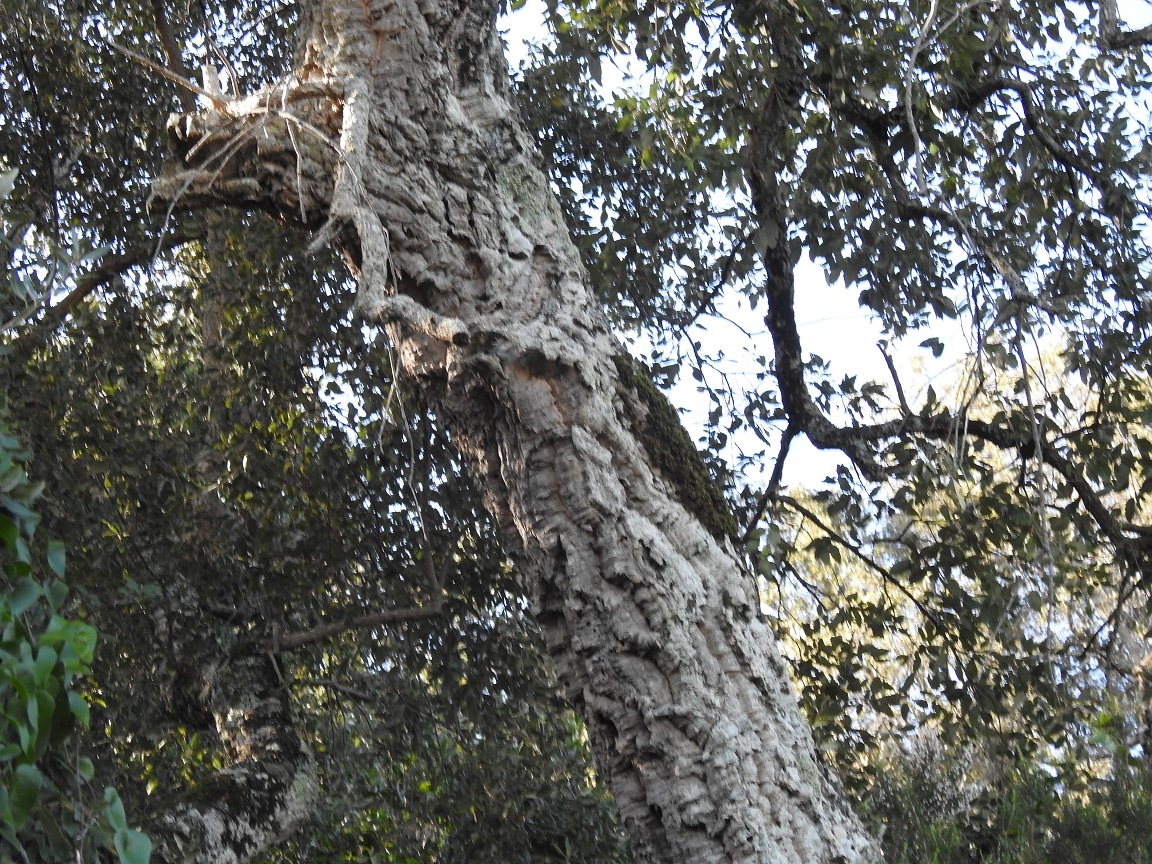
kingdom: Plantae
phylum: Tracheophyta
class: Magnoliopsida
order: Fagales
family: Fagaceae
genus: Quercus
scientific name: Quercus suber
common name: Cork oak
